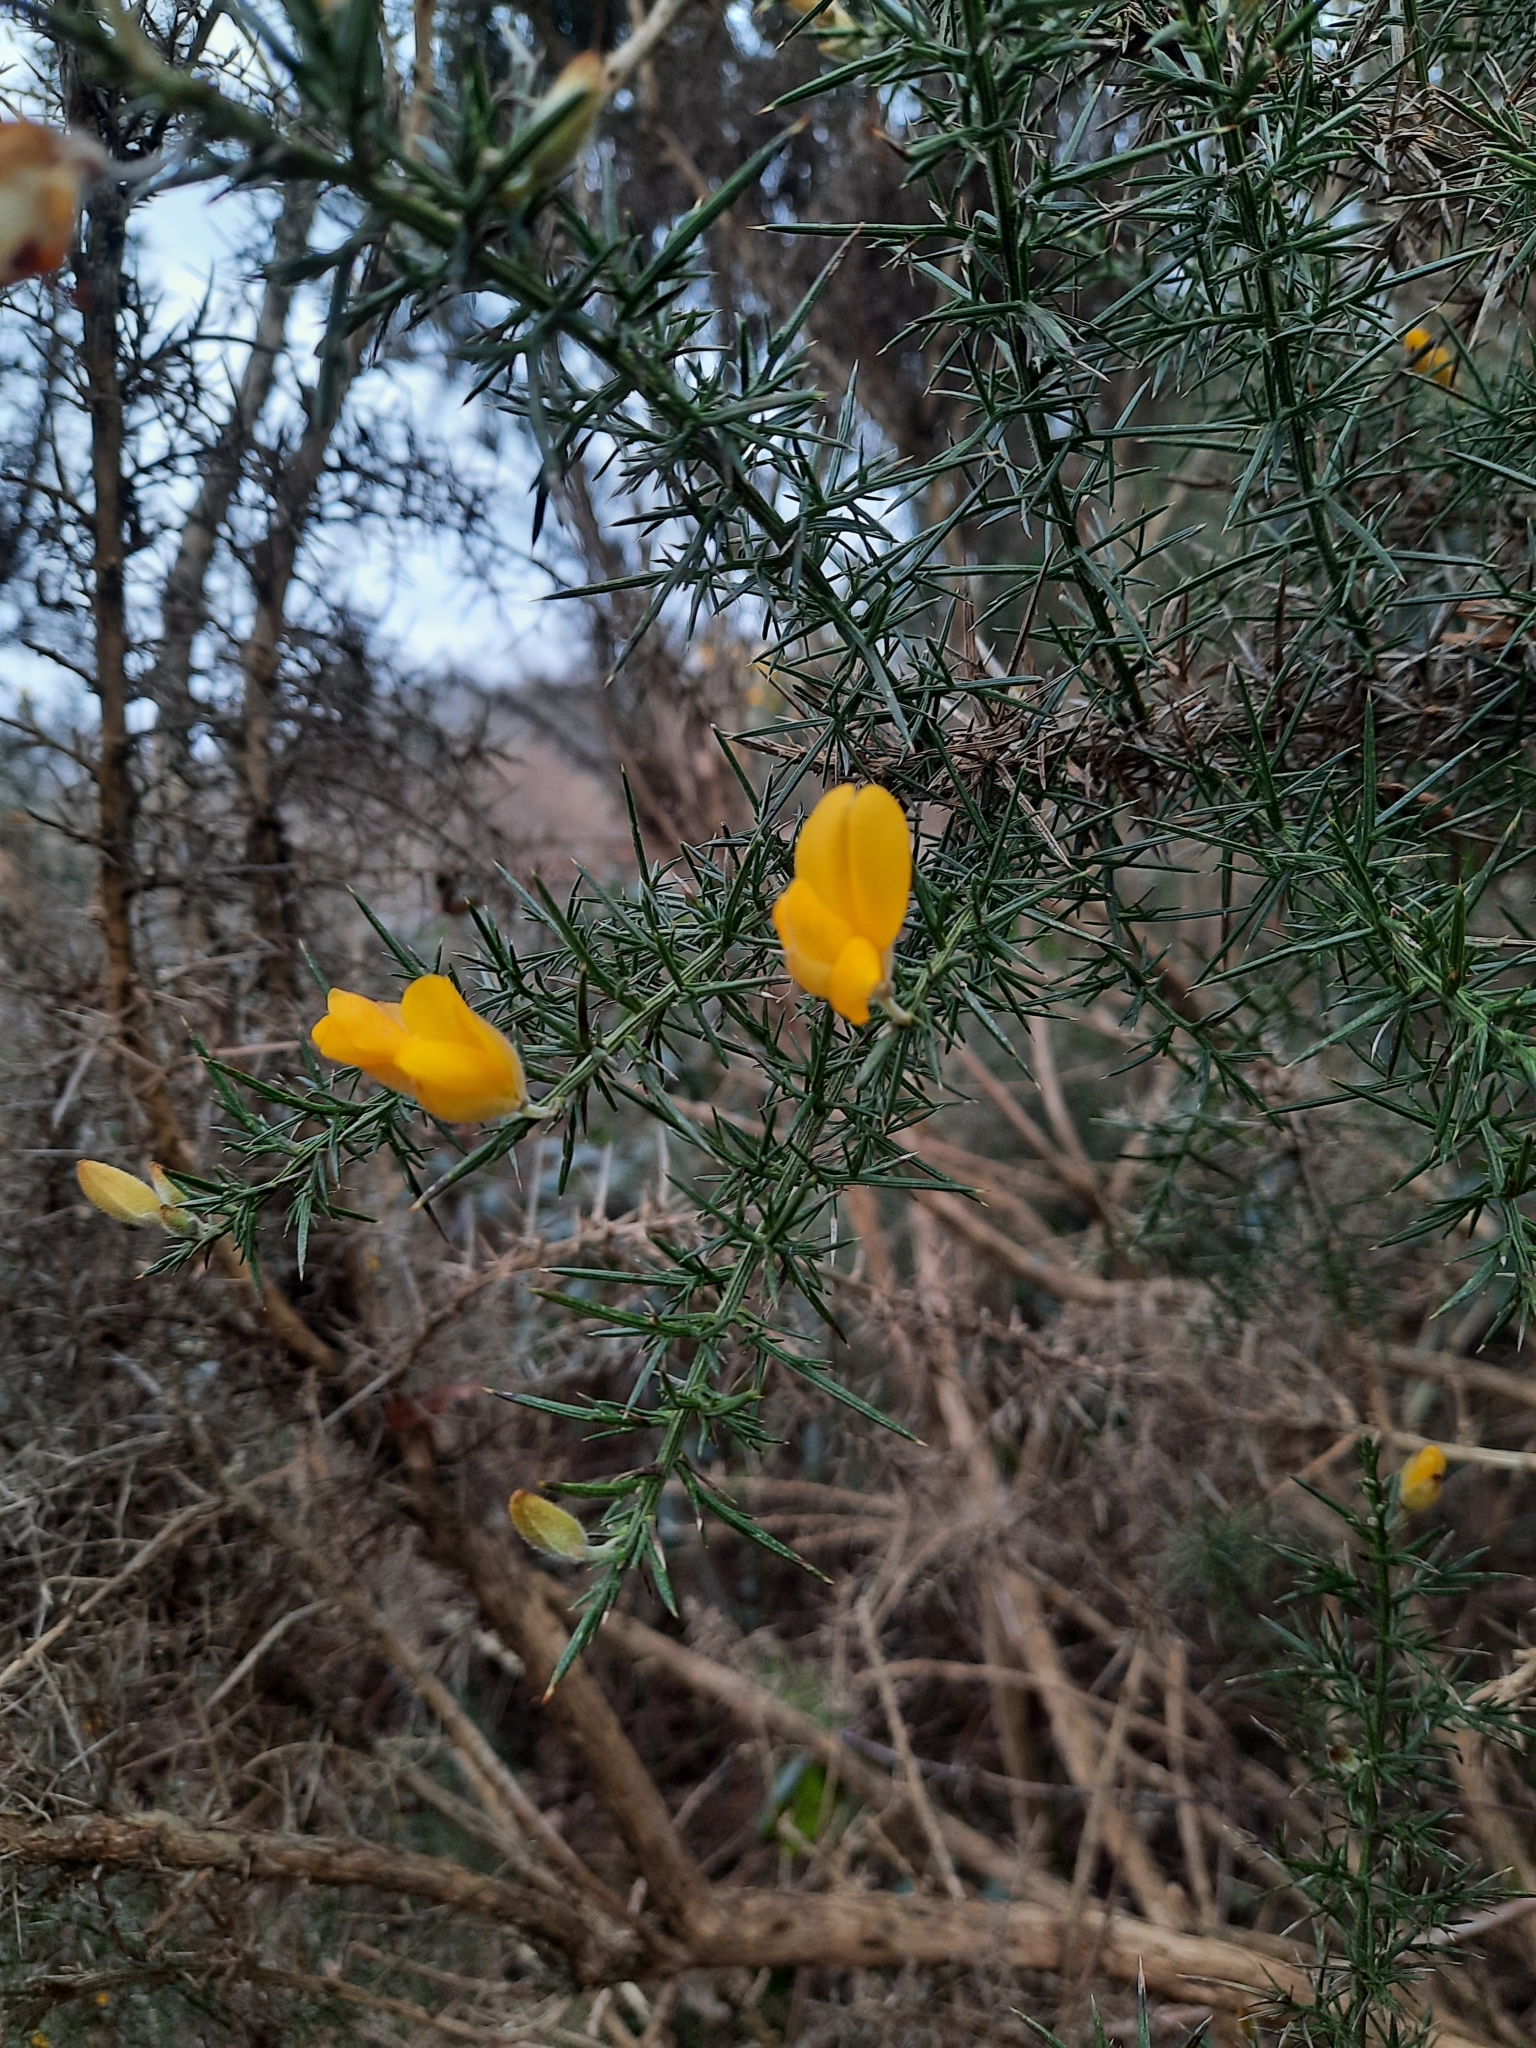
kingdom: Plantae
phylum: Tracheophyta
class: Magnoliopsida
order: Fabales
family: Fabaceae
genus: Ulex
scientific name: Ulex europaeus
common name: Common gorse
